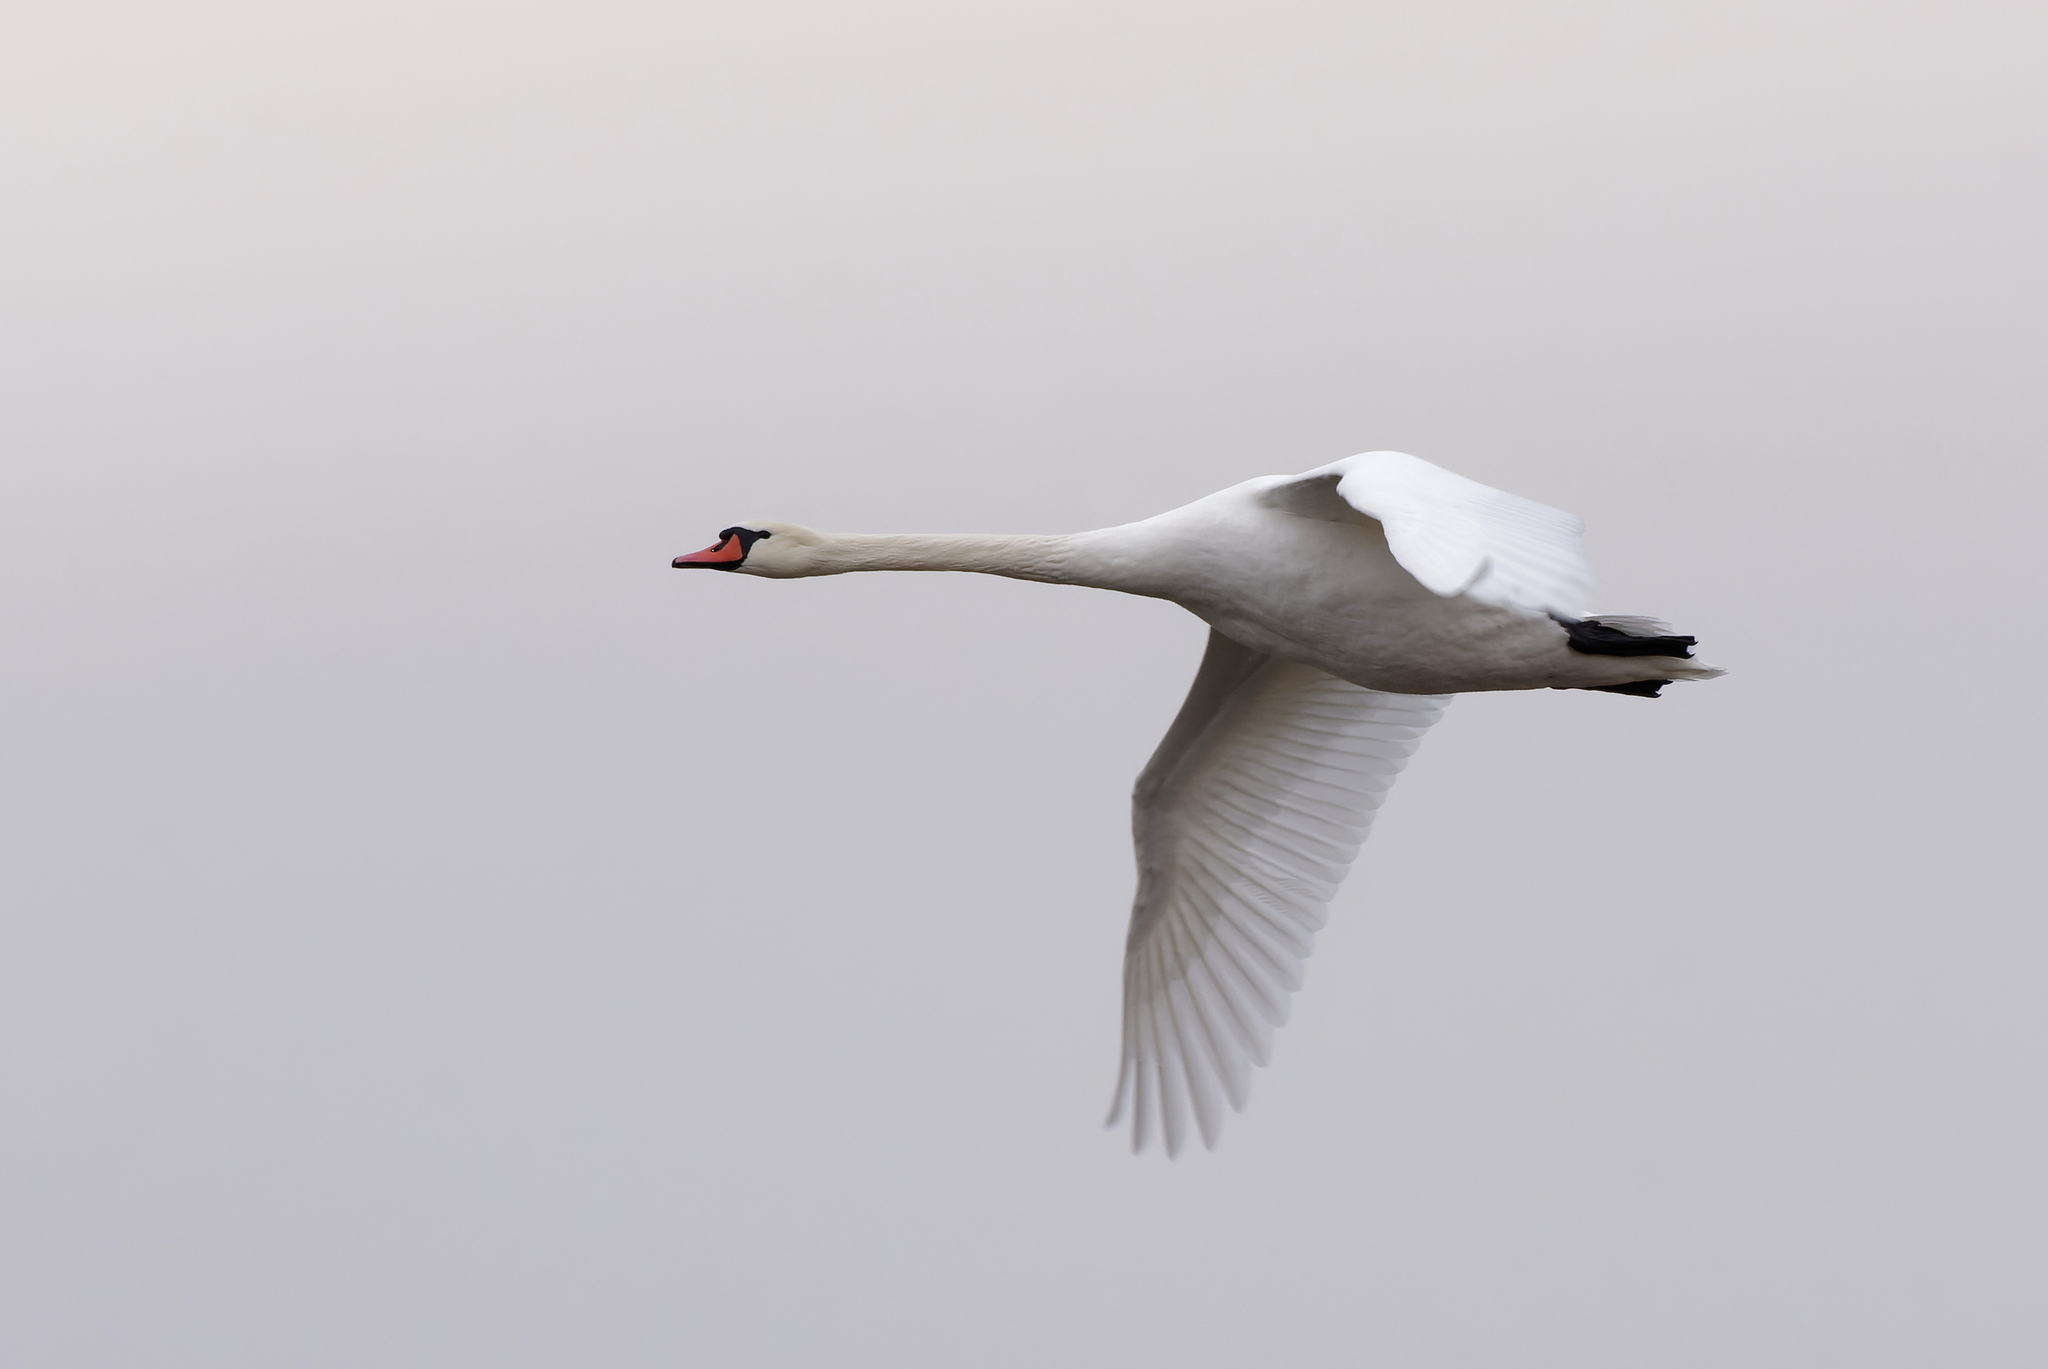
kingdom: Animalia
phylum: Chordata
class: Aves
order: Anseriformes
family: Anatidae
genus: Cygnus
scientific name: Cygnus olor
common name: Mute swan
